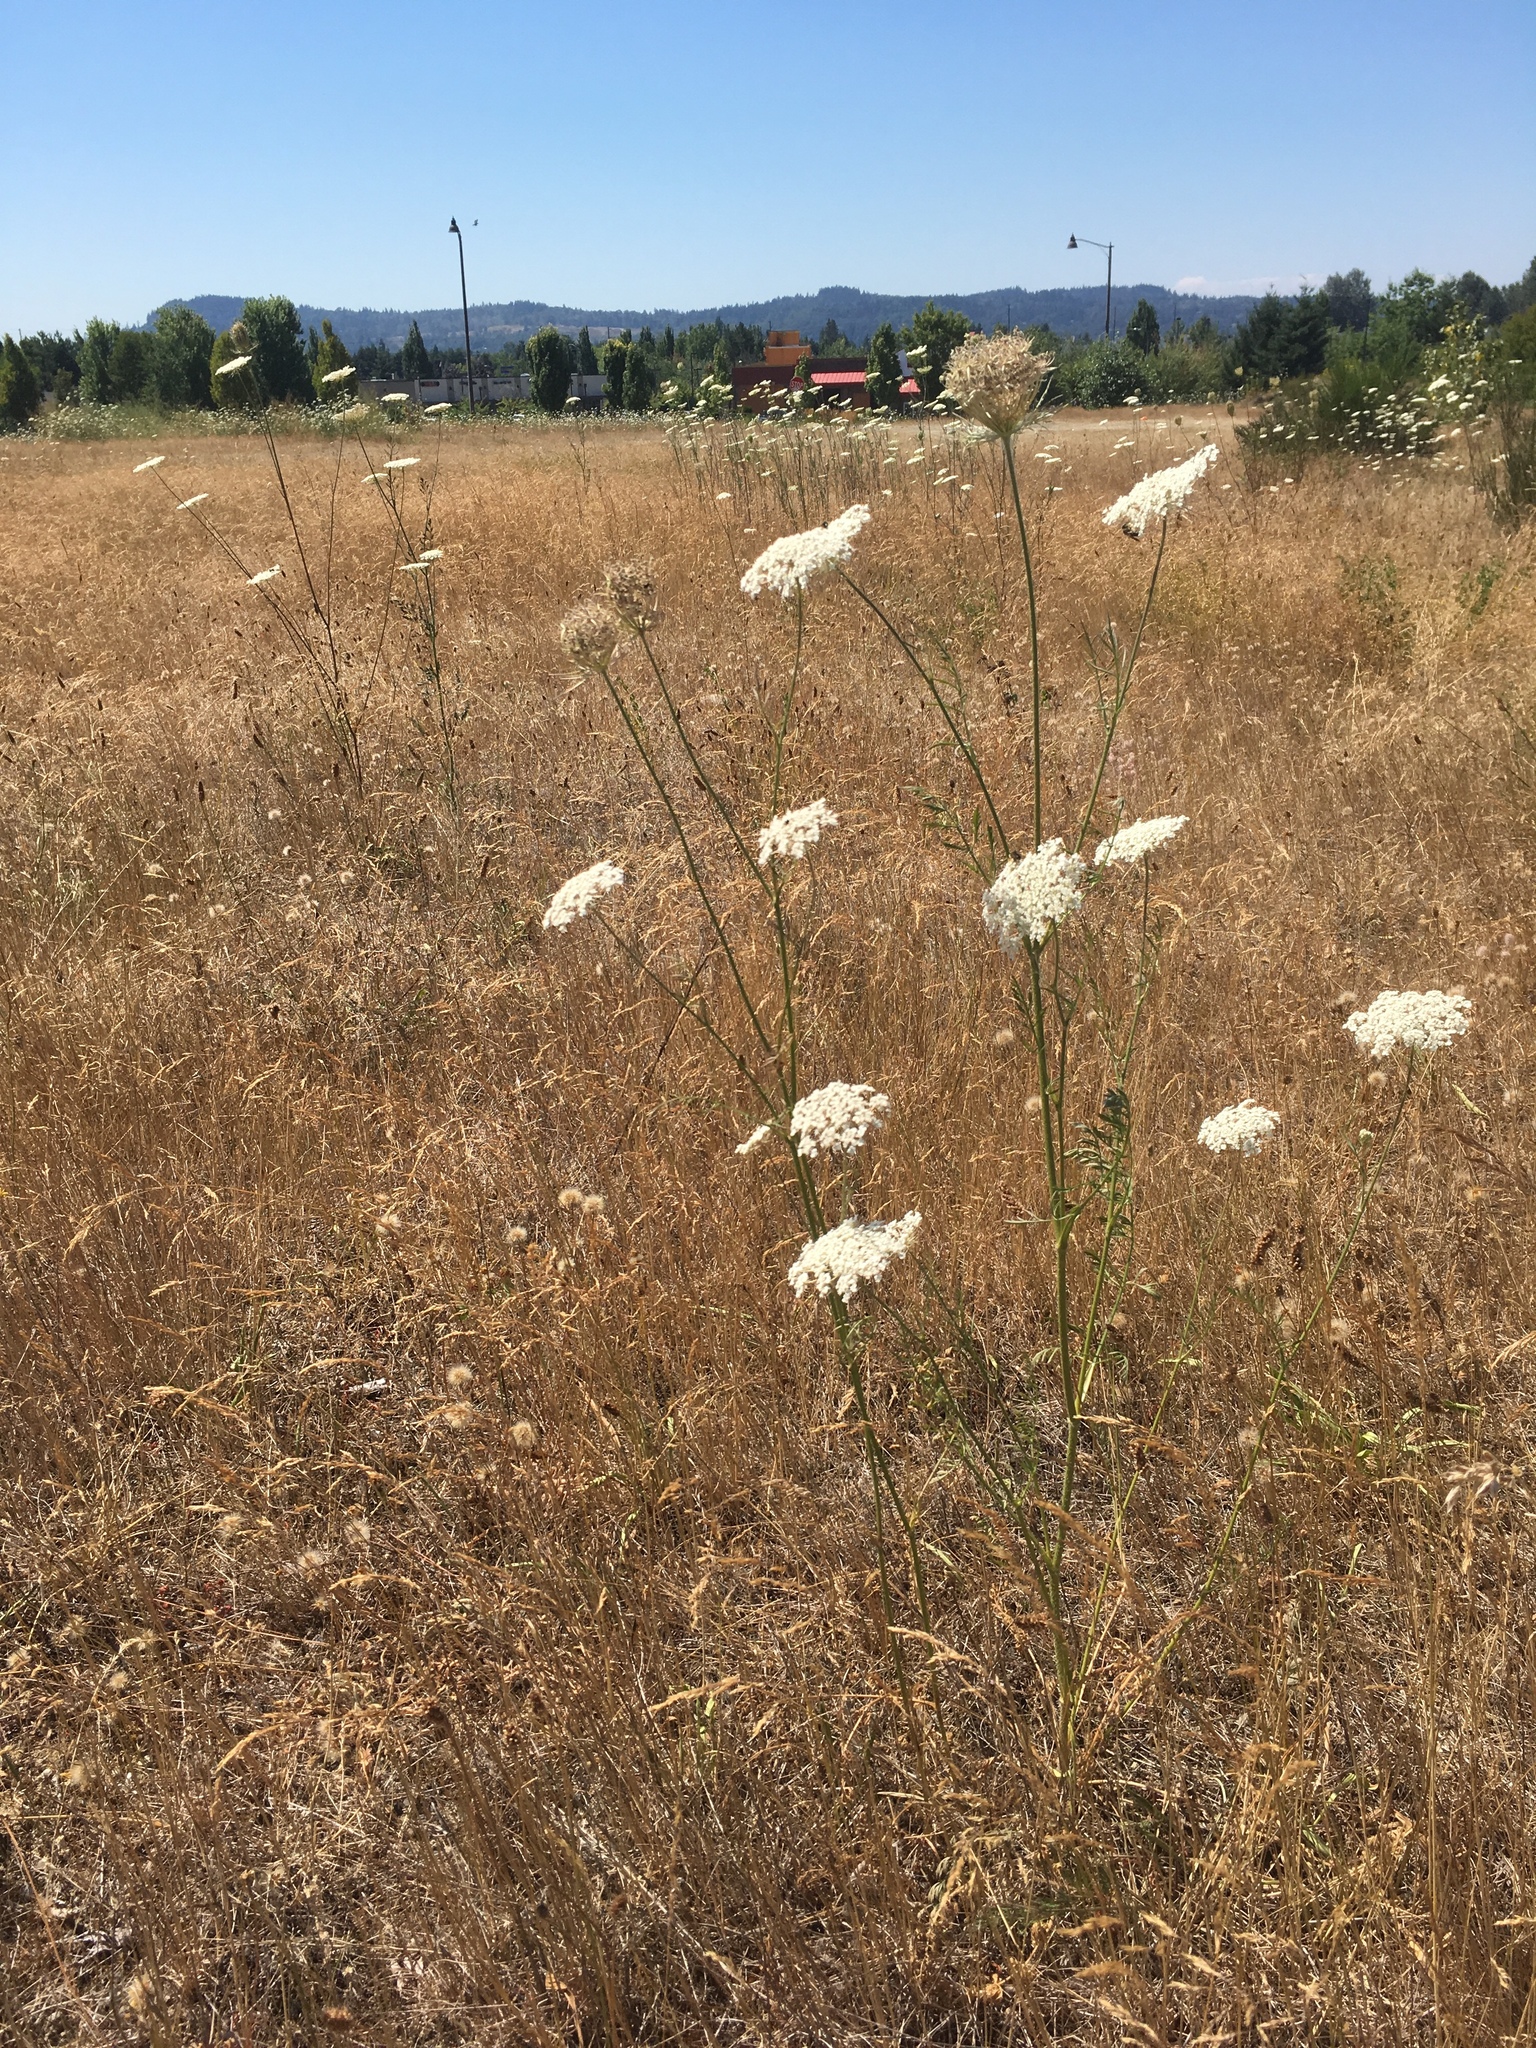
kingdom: Plantae
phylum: Tracheophyta
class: Magnoliopsida
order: Apiales
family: Apiaceae
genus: Daucus
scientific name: Daucus carota
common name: Wild carrot
